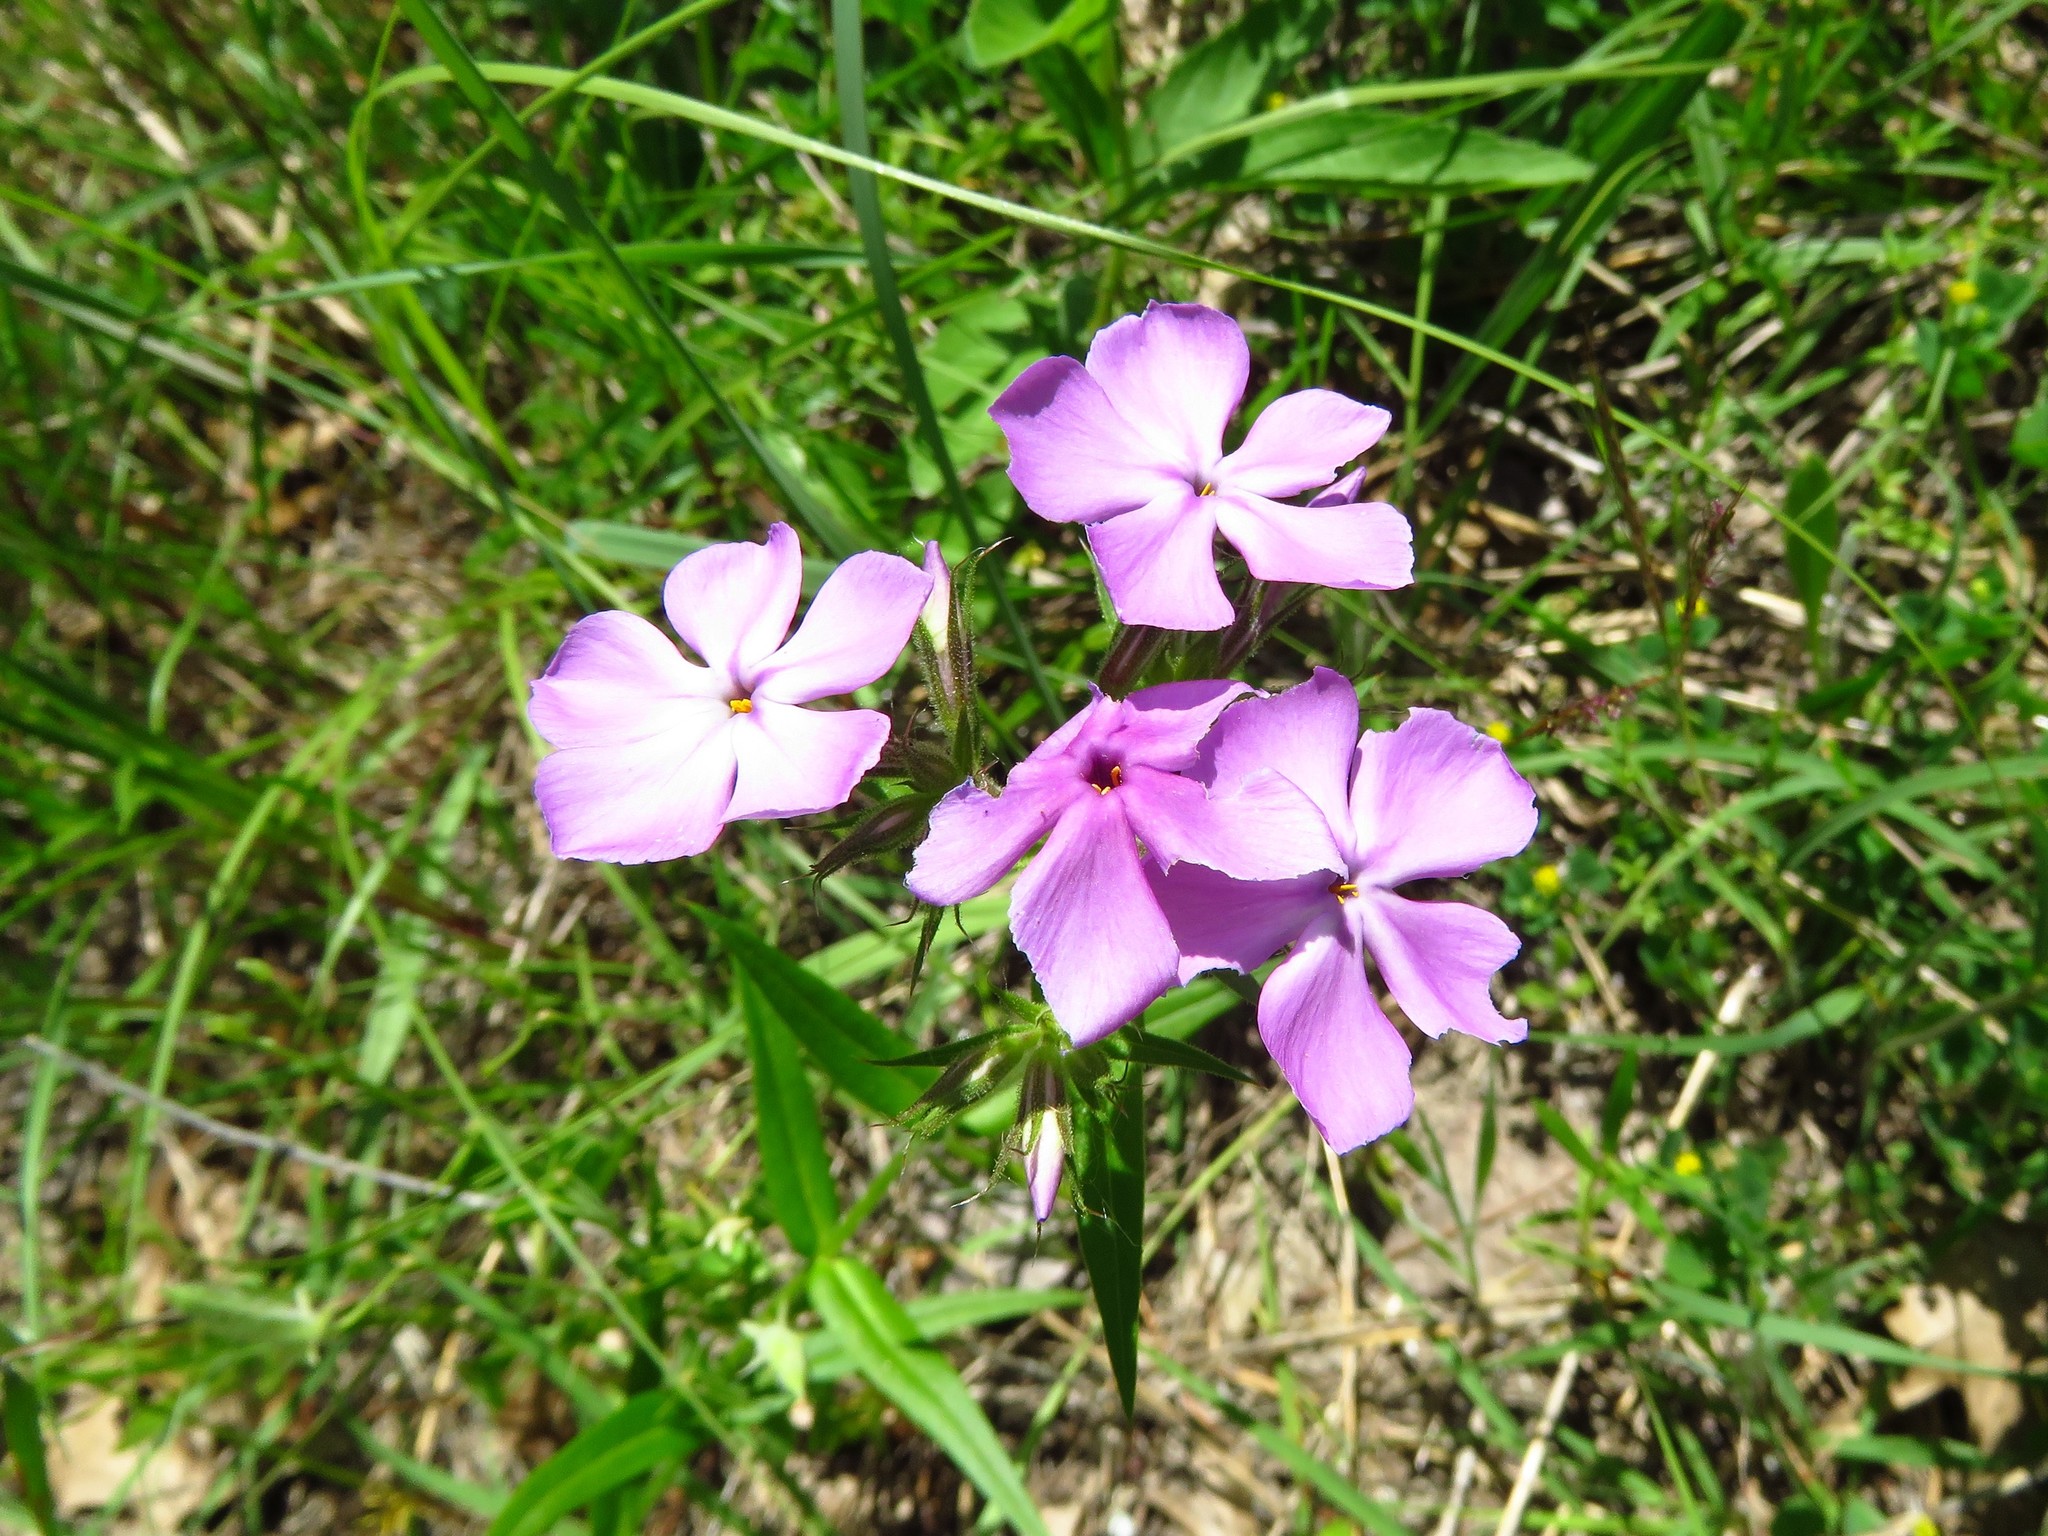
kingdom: Plantae
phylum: Tracheophyta
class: Magnoliopsida
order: Ericales
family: Polemoniaceae
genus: Phlox
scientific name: Phlox pilosa
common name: Prairie phlox
